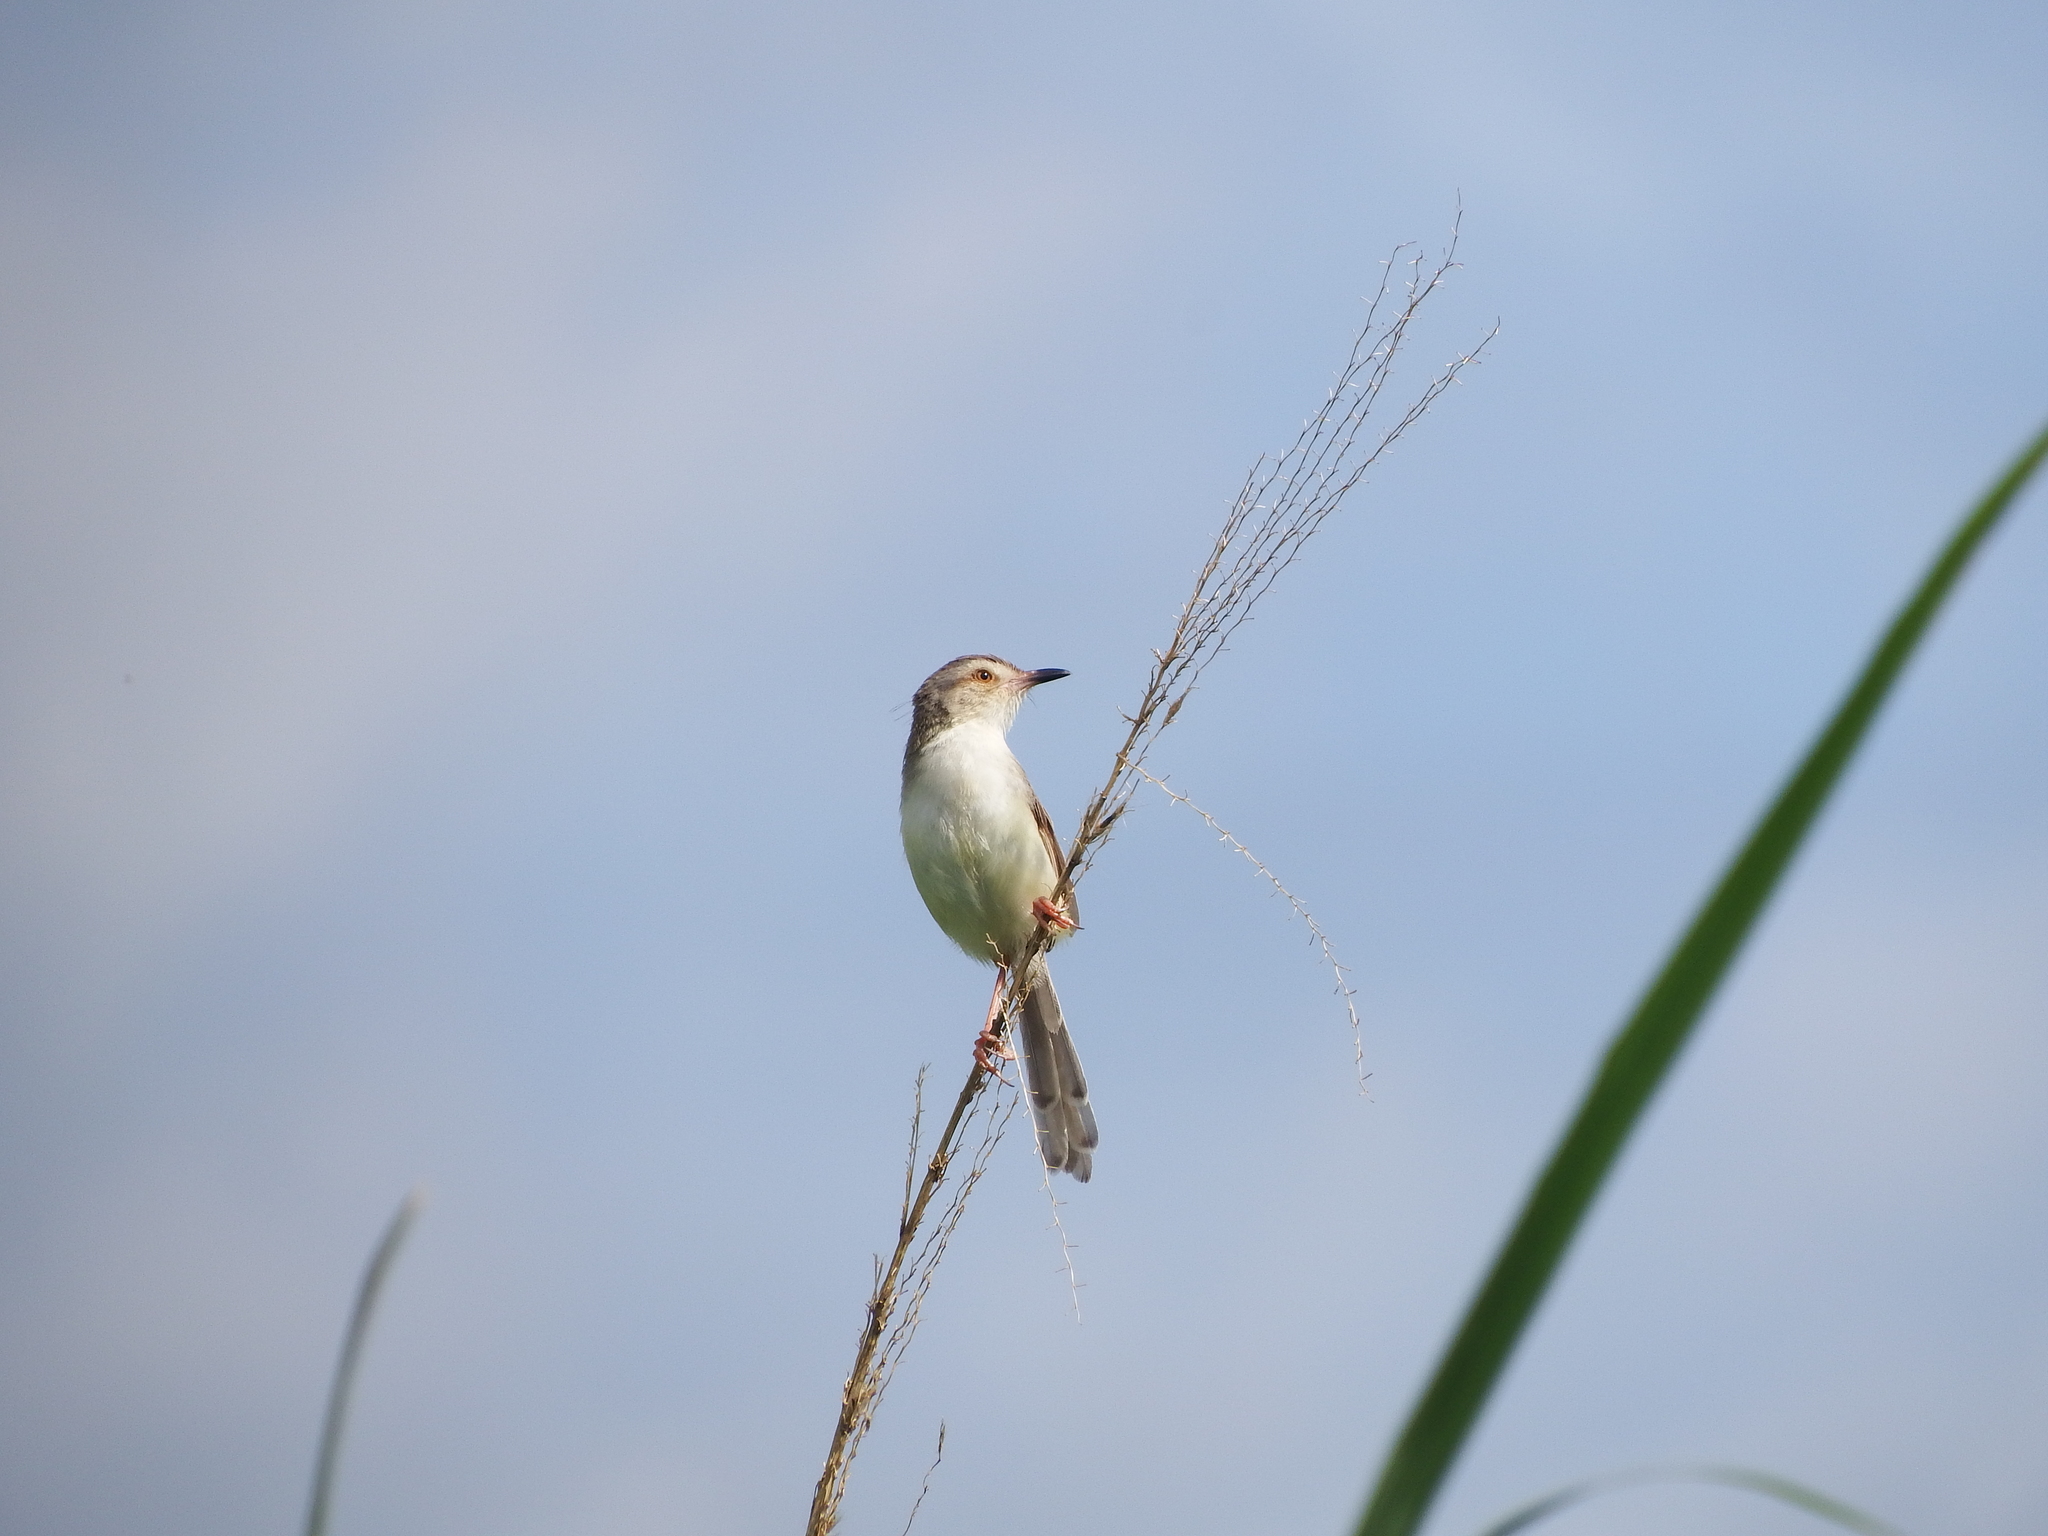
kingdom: Animalia
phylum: Chordata
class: Aves
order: Passeriformes
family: Cisticolidae
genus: Prinia
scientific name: Prinia inornata
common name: Plain prinia
